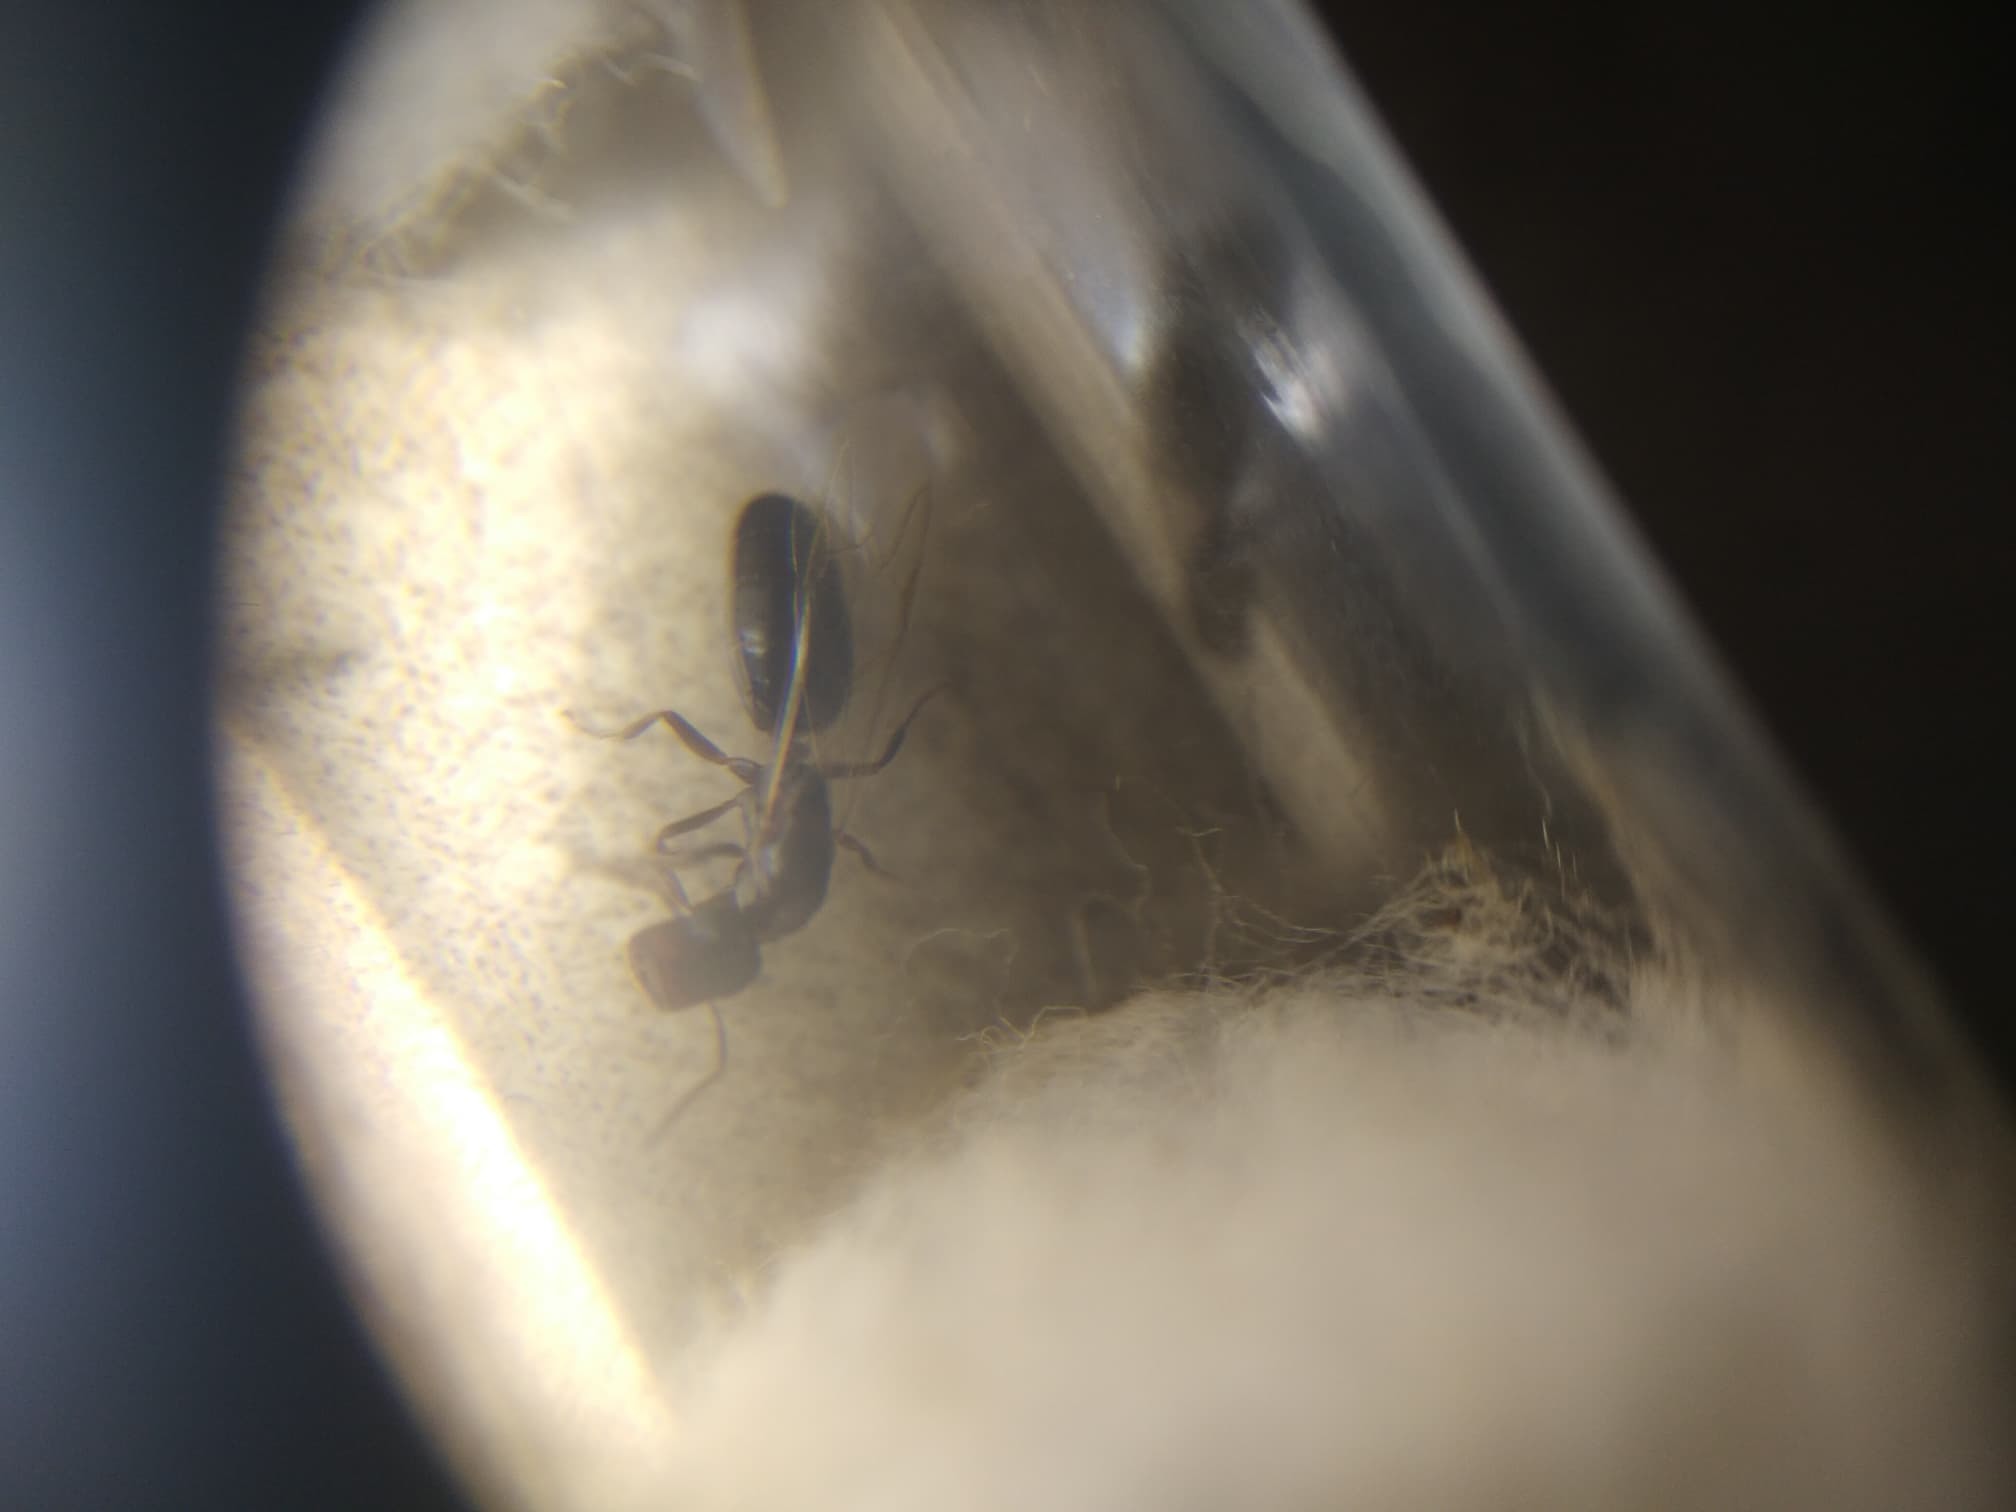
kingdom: Animalia
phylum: Arthropoda
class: Insecta
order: Hymenoptera
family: Formicidae
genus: Colobopsis
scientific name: Colobopsis
